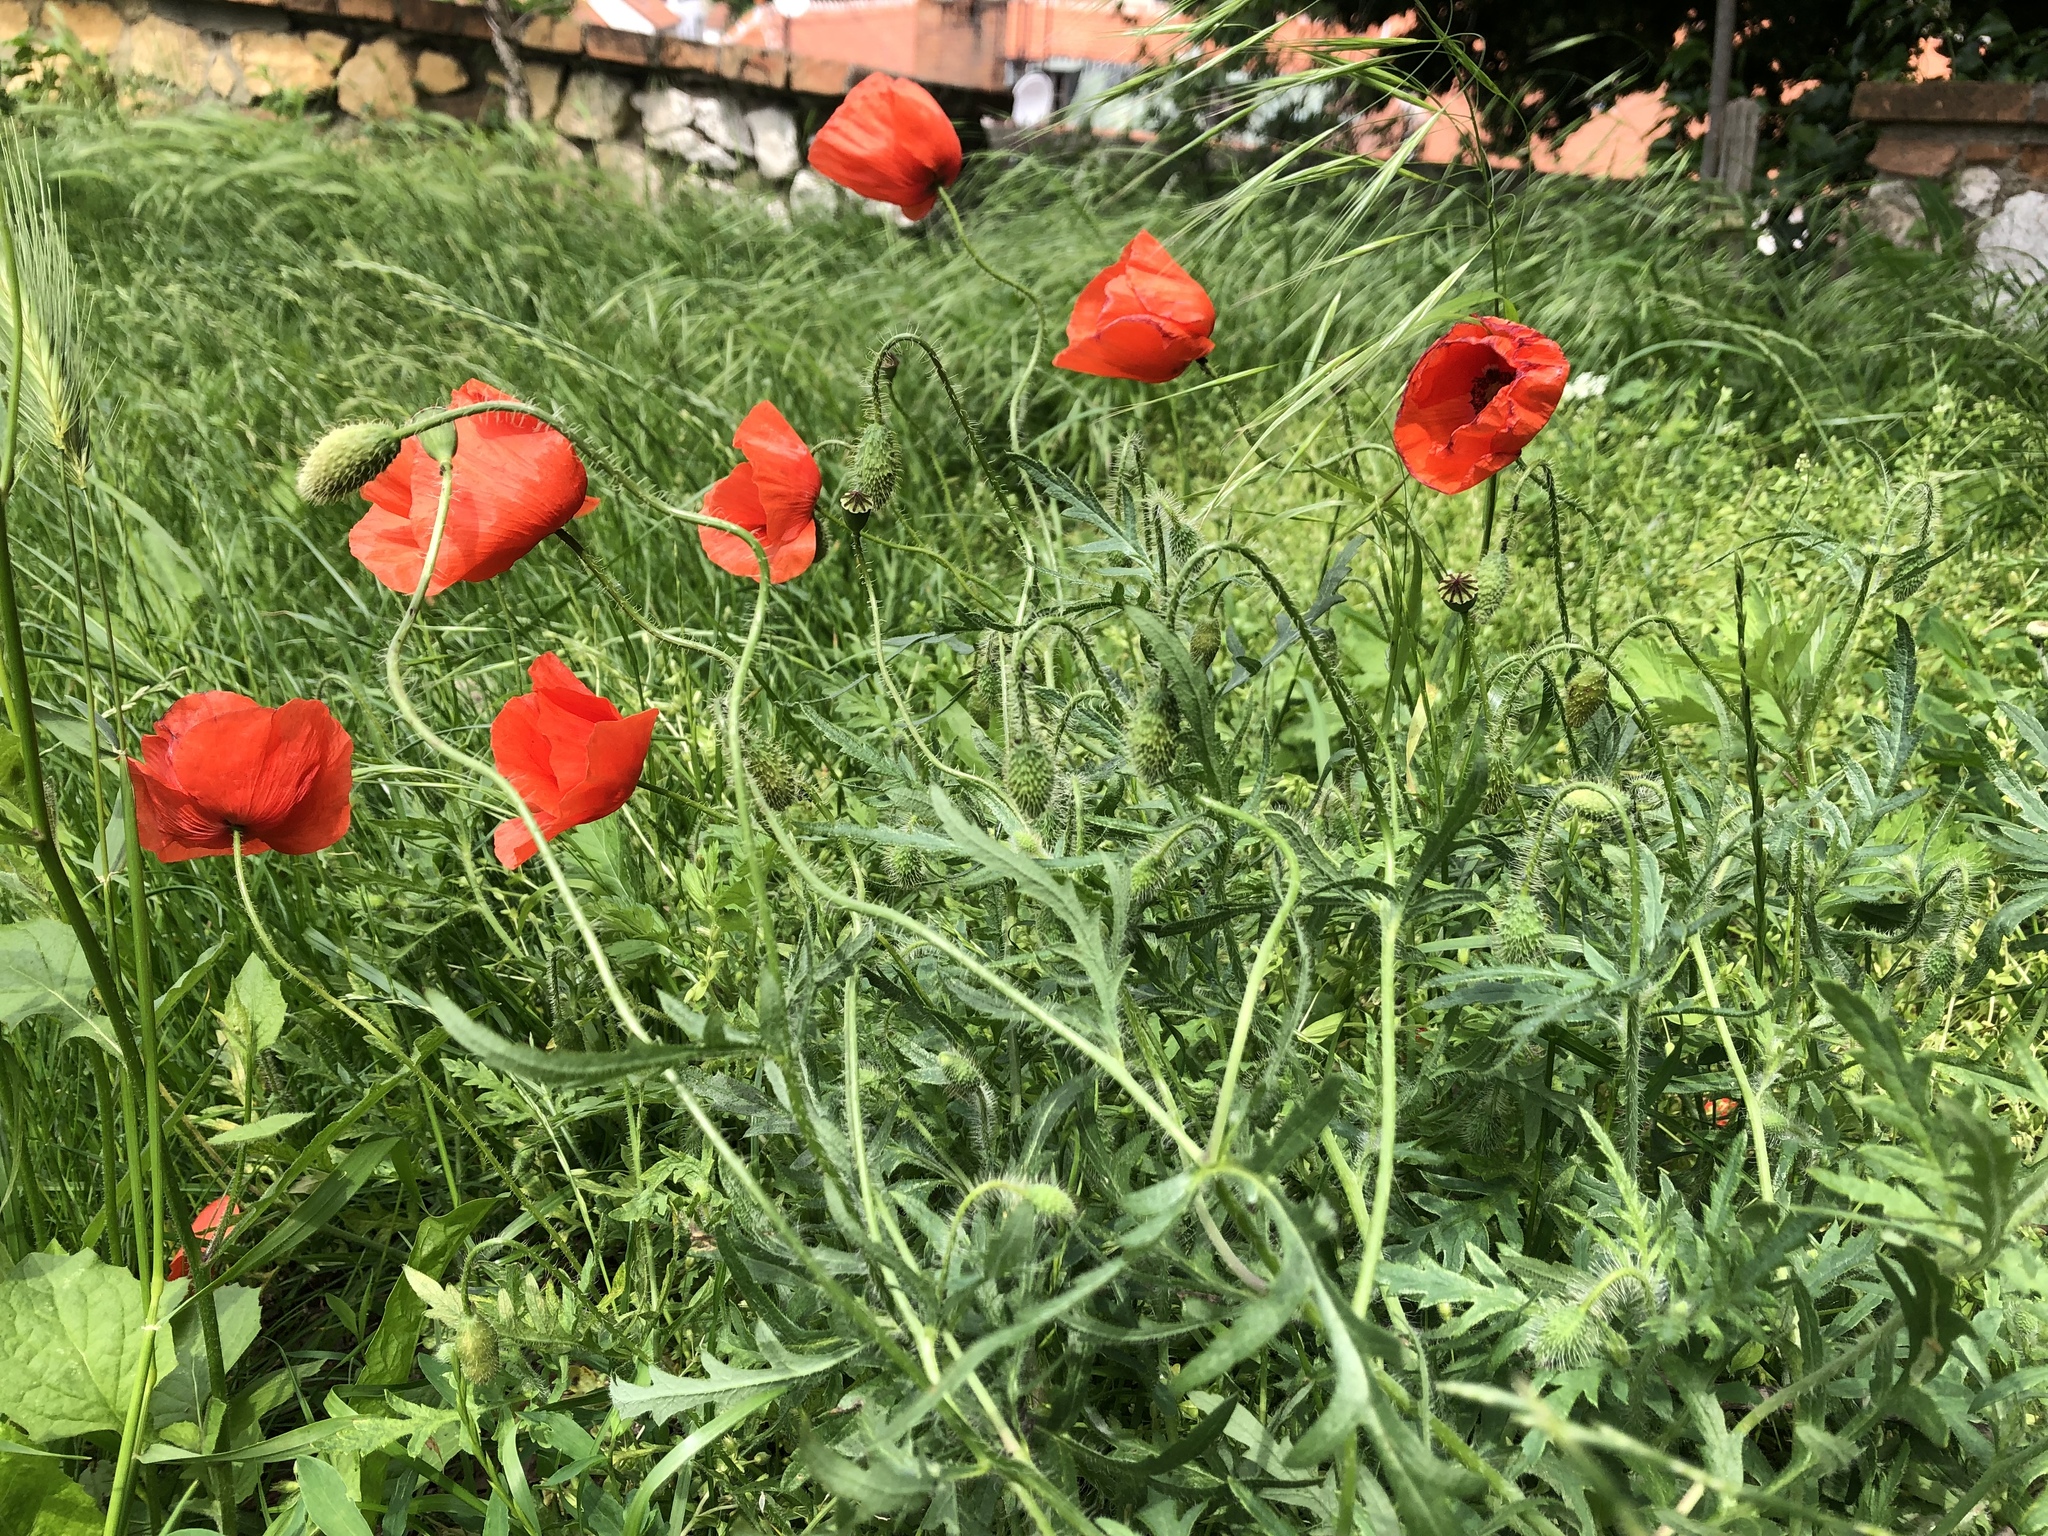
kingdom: Plantae
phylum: Tracheophyta
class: Magnoliopsida
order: Ranunculales
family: Papaveraceae
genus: Papaver
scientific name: Papaver rhoeas
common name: Corn poppy
